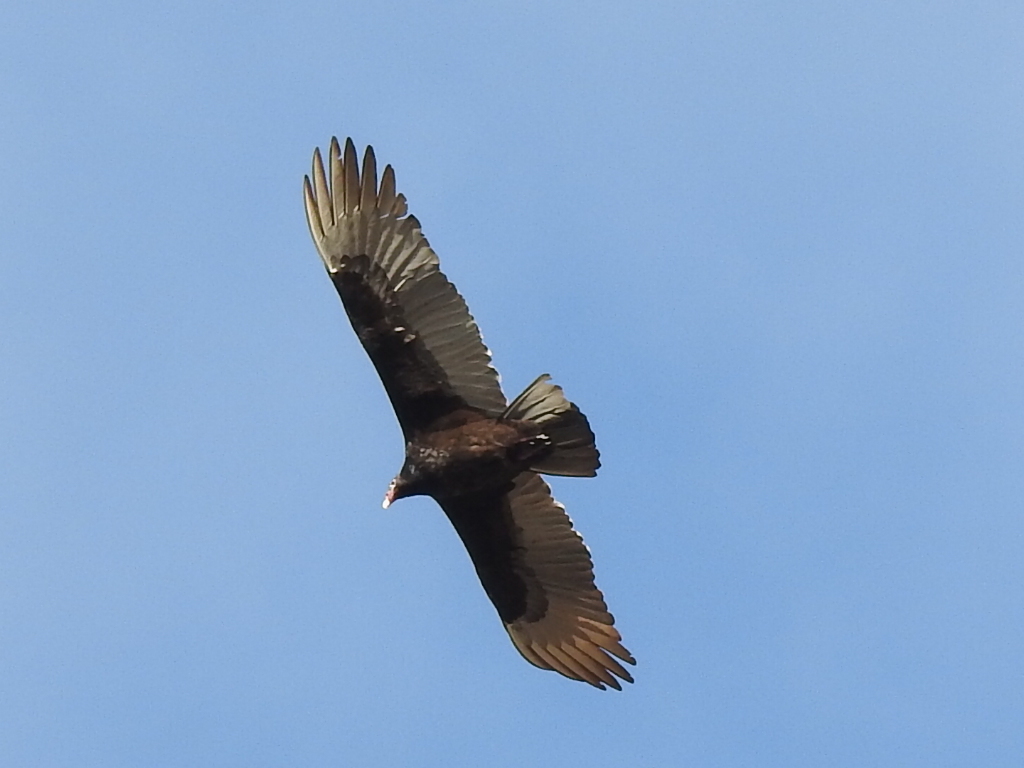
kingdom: Animalia
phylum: Chordata
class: Aves
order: Accipitriformes
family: Cathartidae
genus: Cathartes
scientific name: Cathartes aura
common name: Turkey vulture
